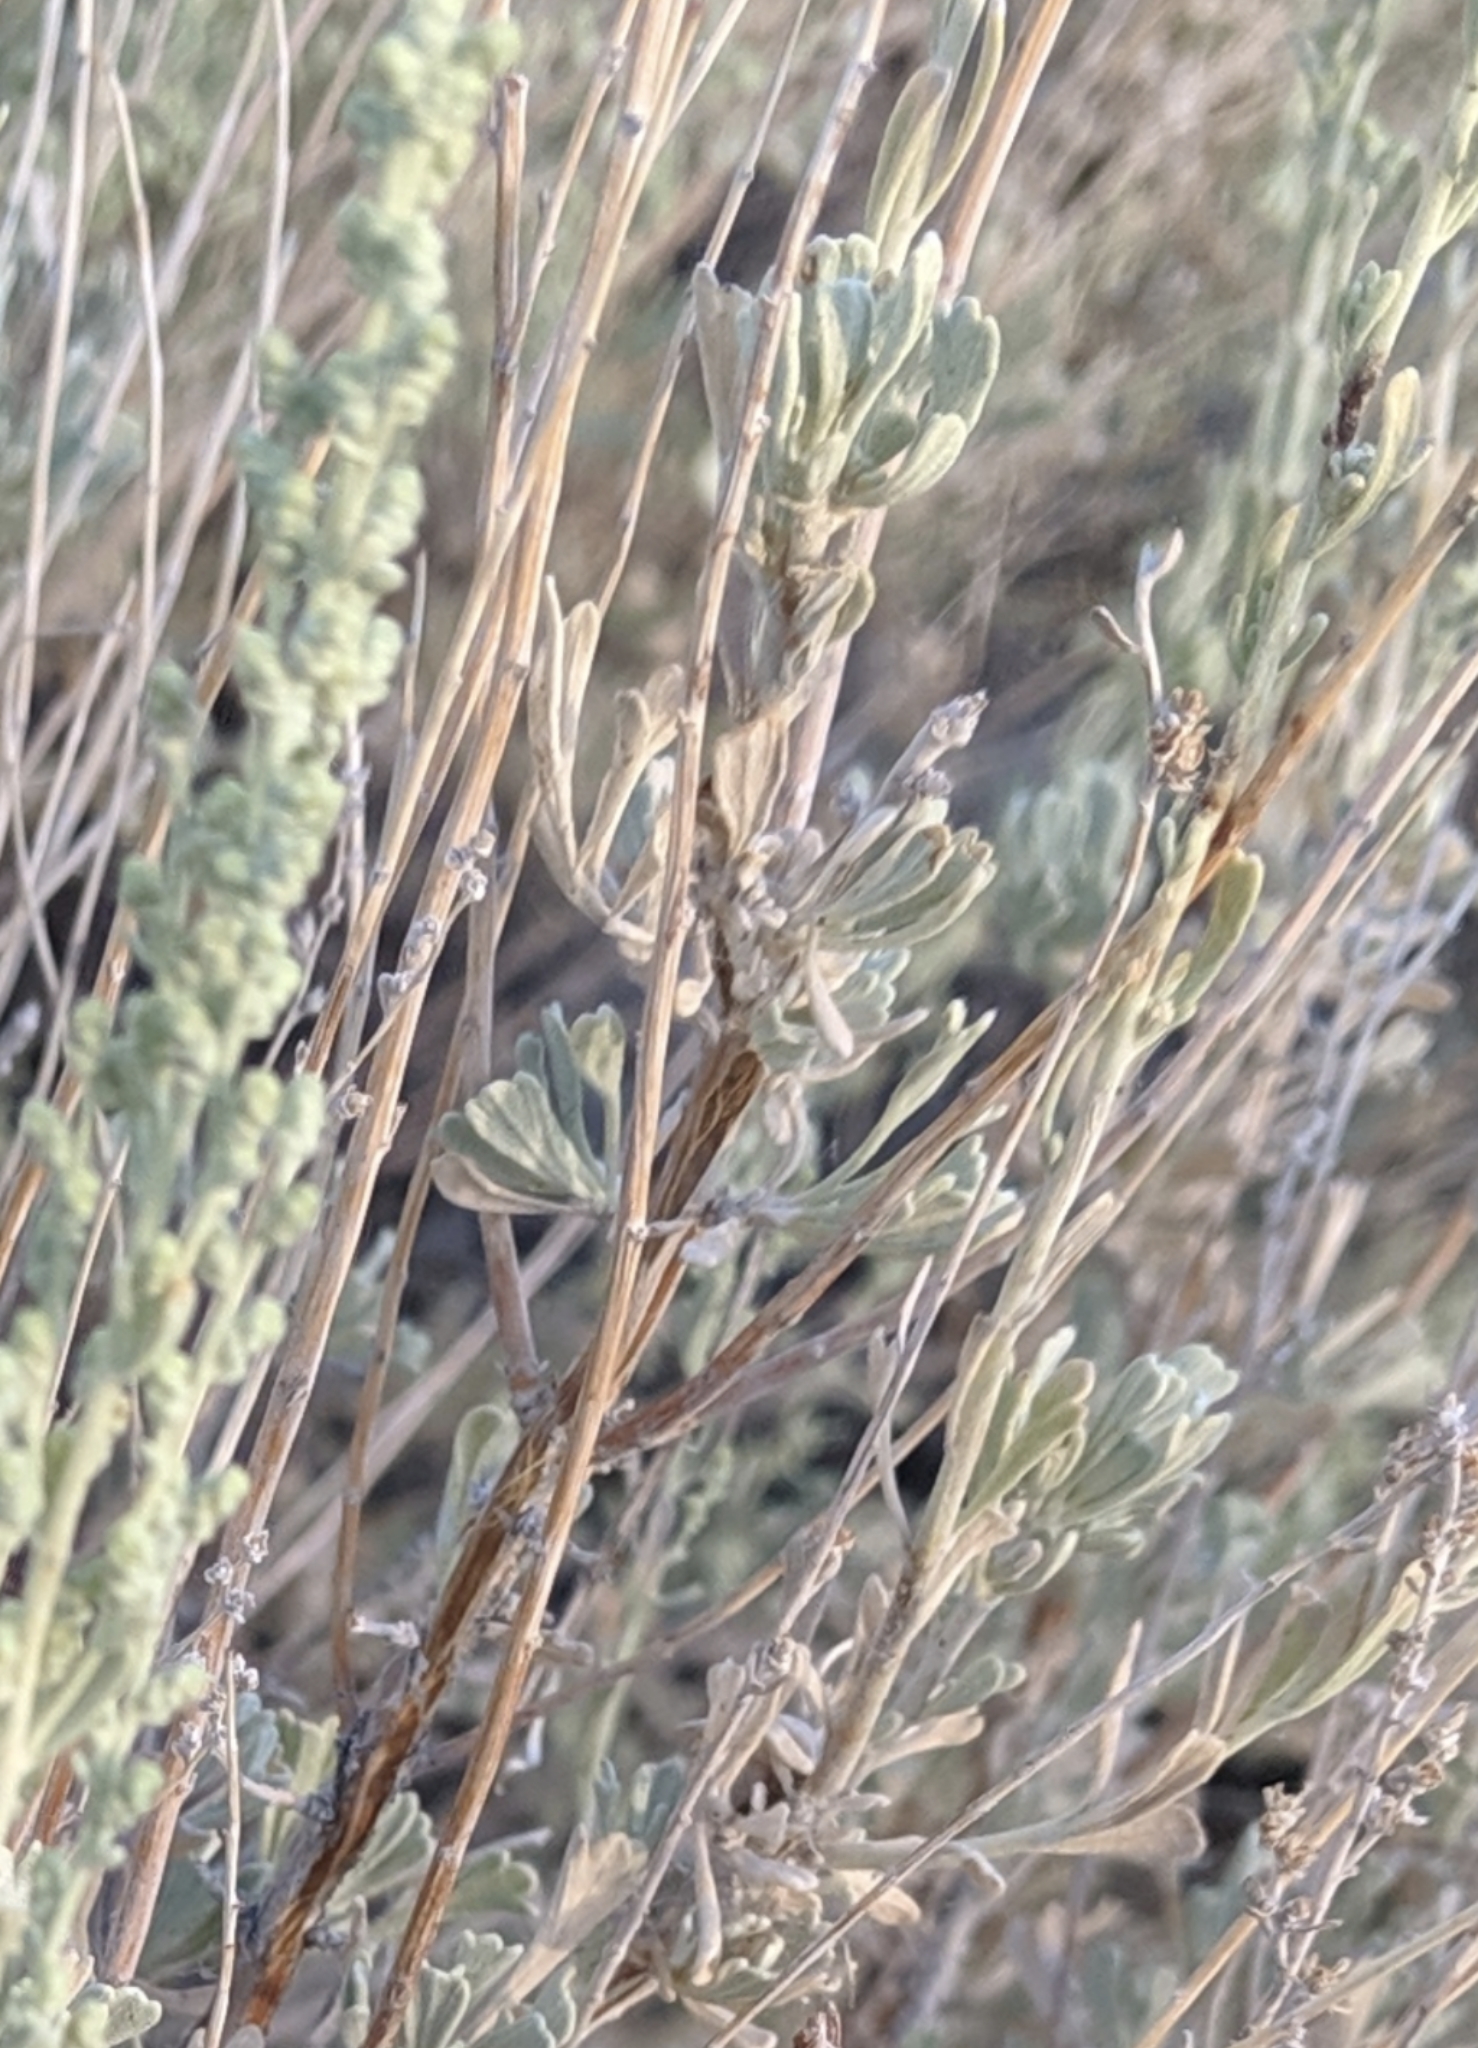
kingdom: Plantae
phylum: Tracheophyta
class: Magnoliopsida
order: Asterales
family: Asteraceae
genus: Artemisia
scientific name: Artemisia tridentata
